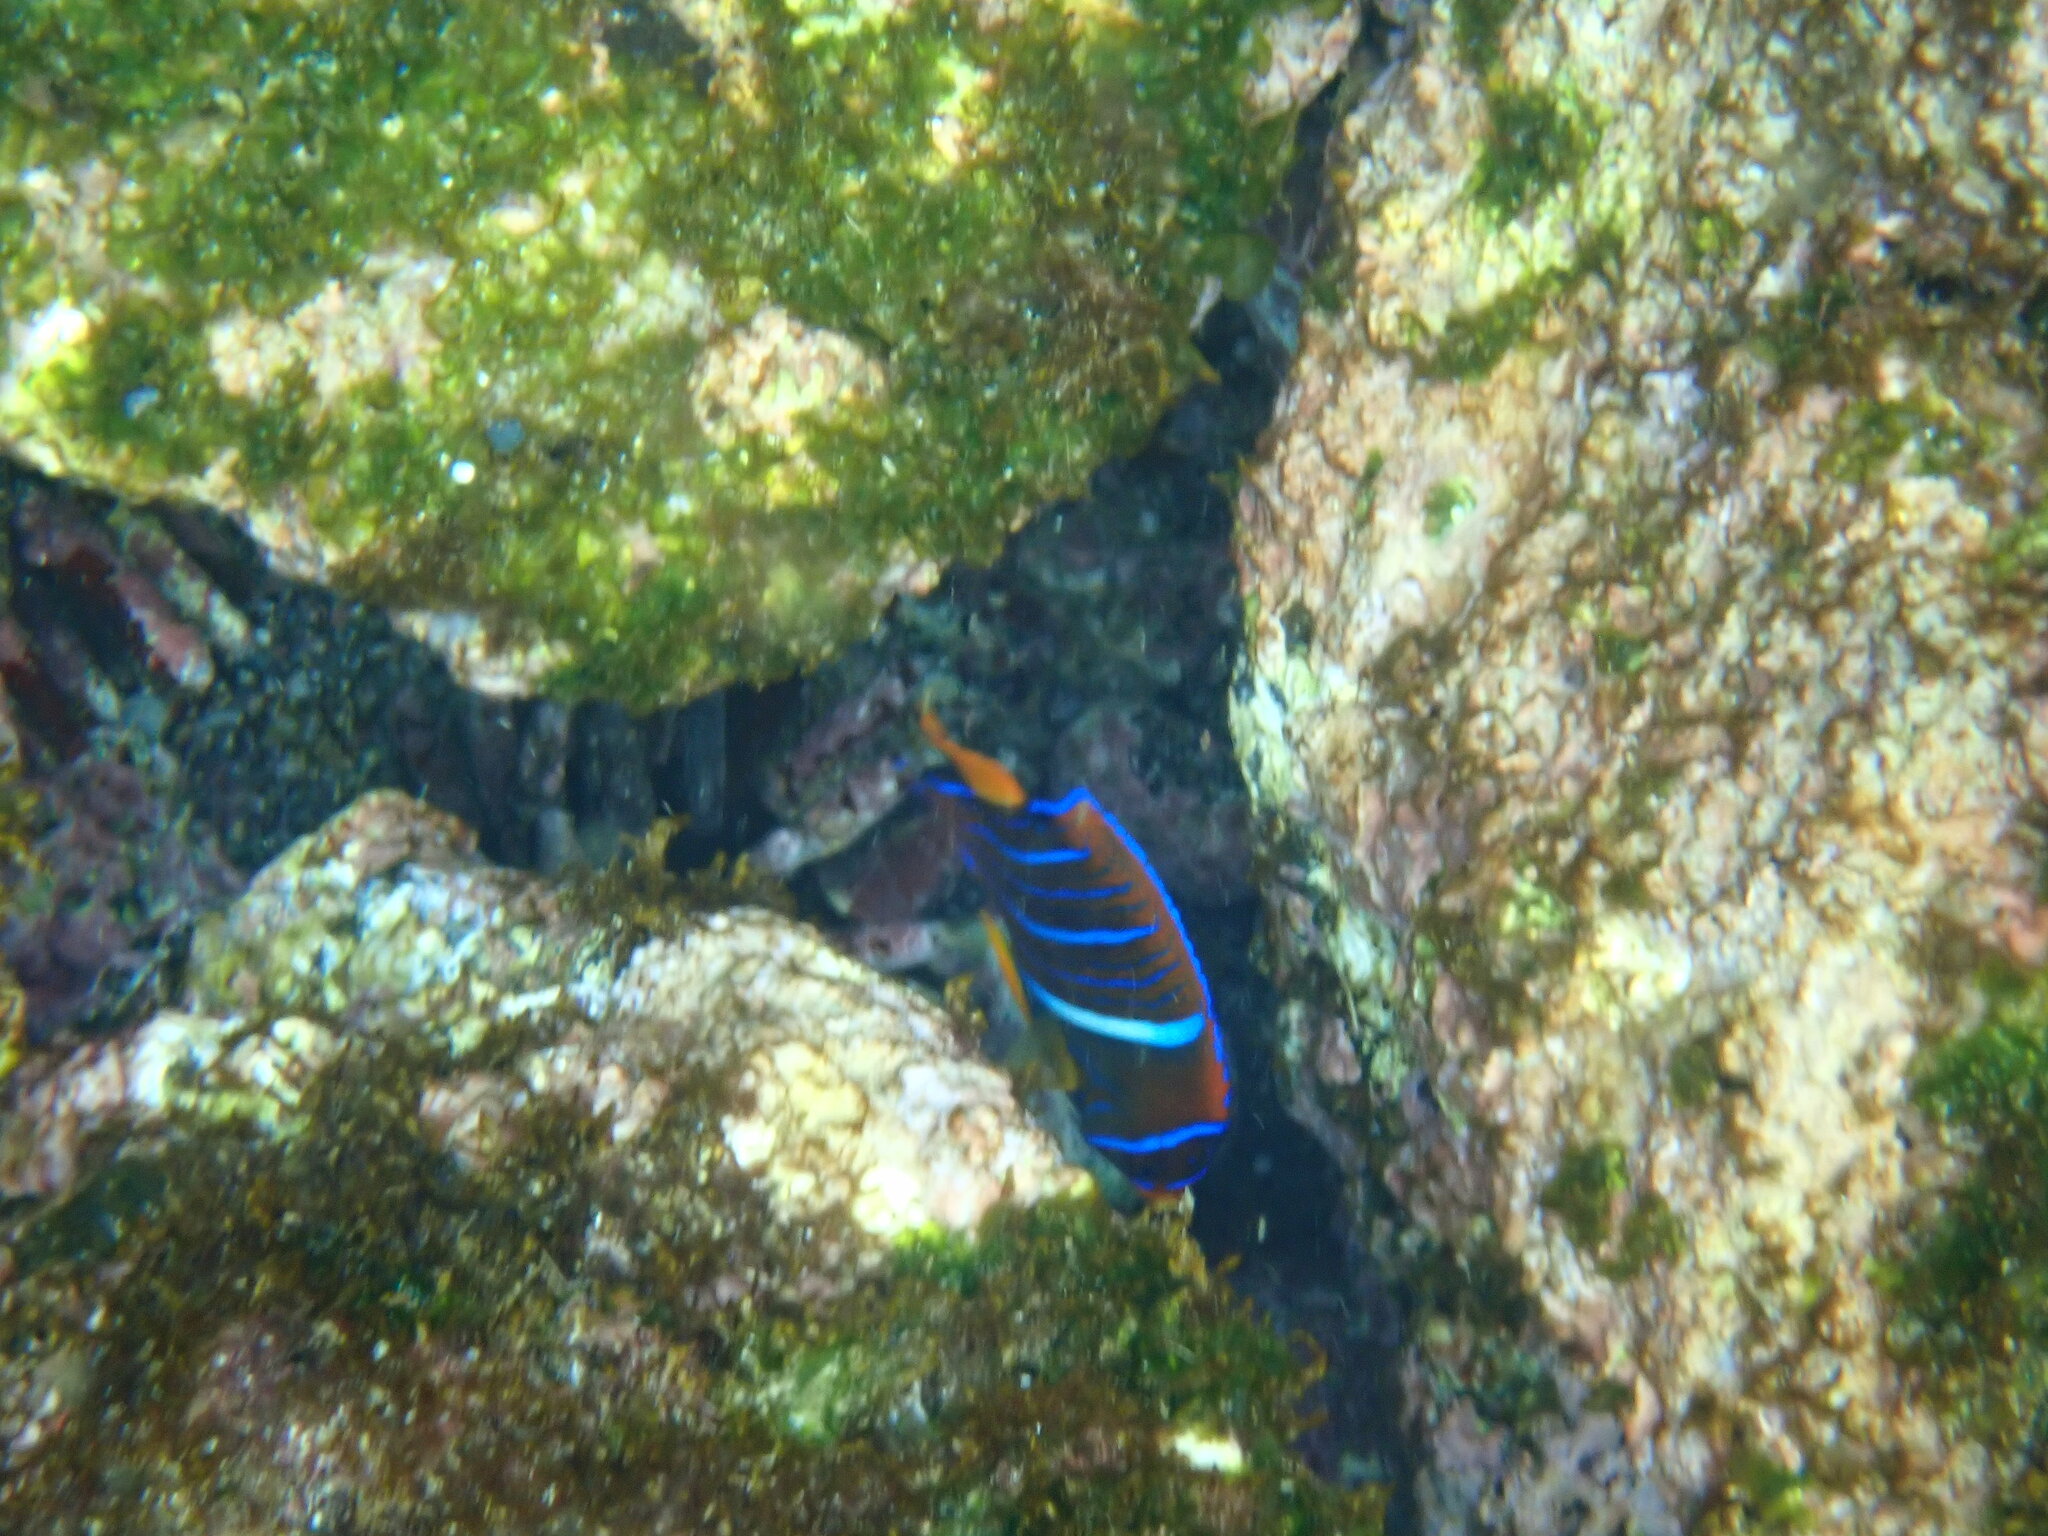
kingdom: Animalia
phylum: Chordata
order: Perciformes
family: Pomacanthidae
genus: Holacanthus
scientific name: Holacanthus passer
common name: King angelfish
